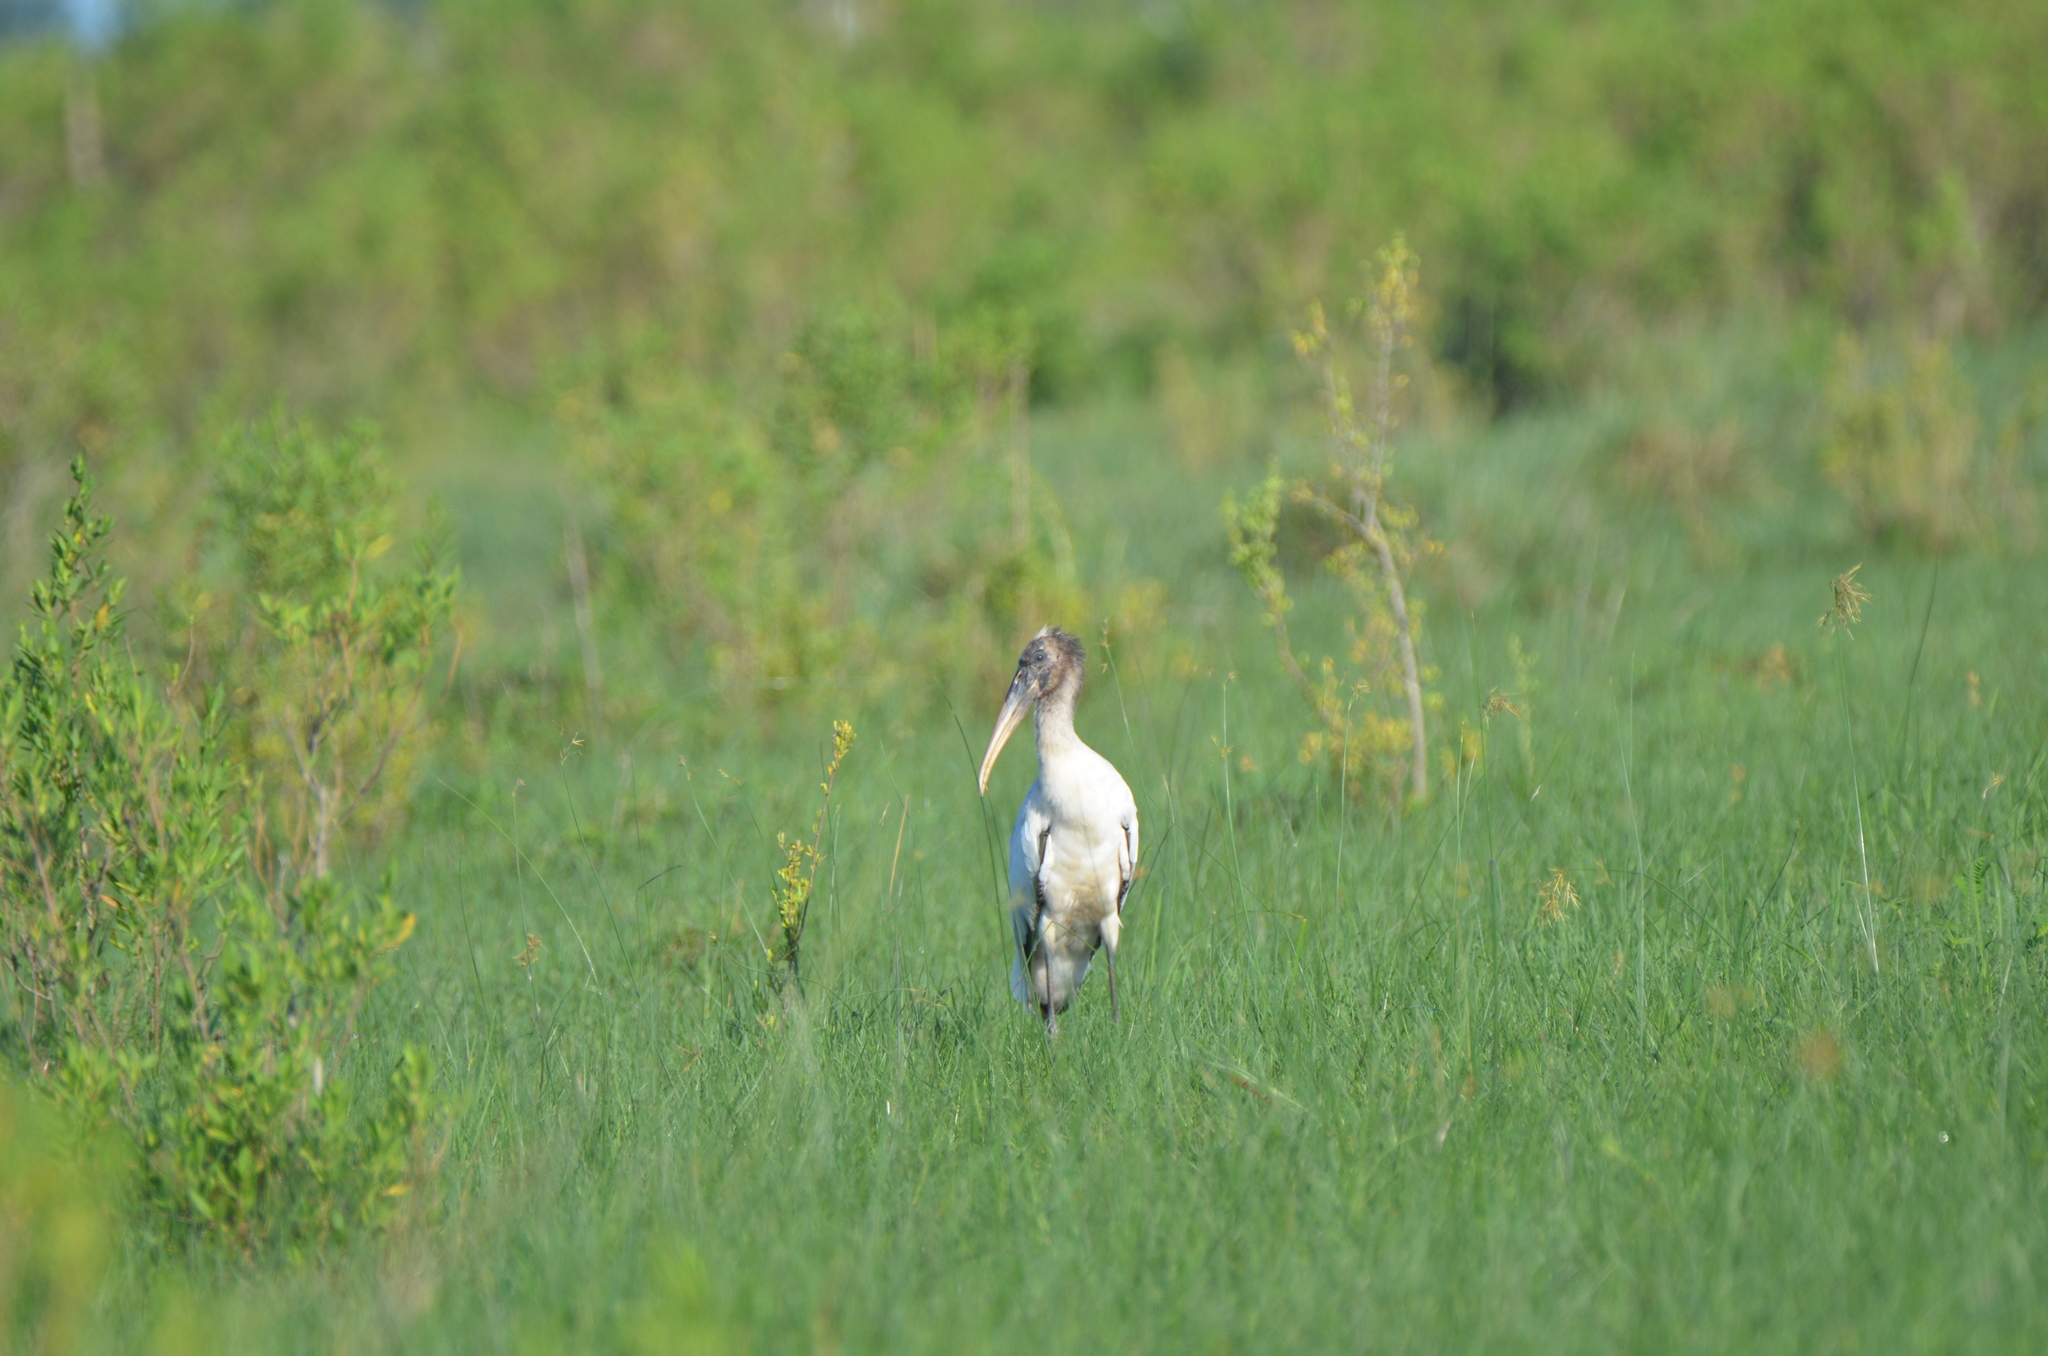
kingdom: Animalia
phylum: Chordata
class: Aves
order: Ciconiiformes
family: Ciconiidae
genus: Mycteria
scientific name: Mycteria americana
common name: Wood stork
